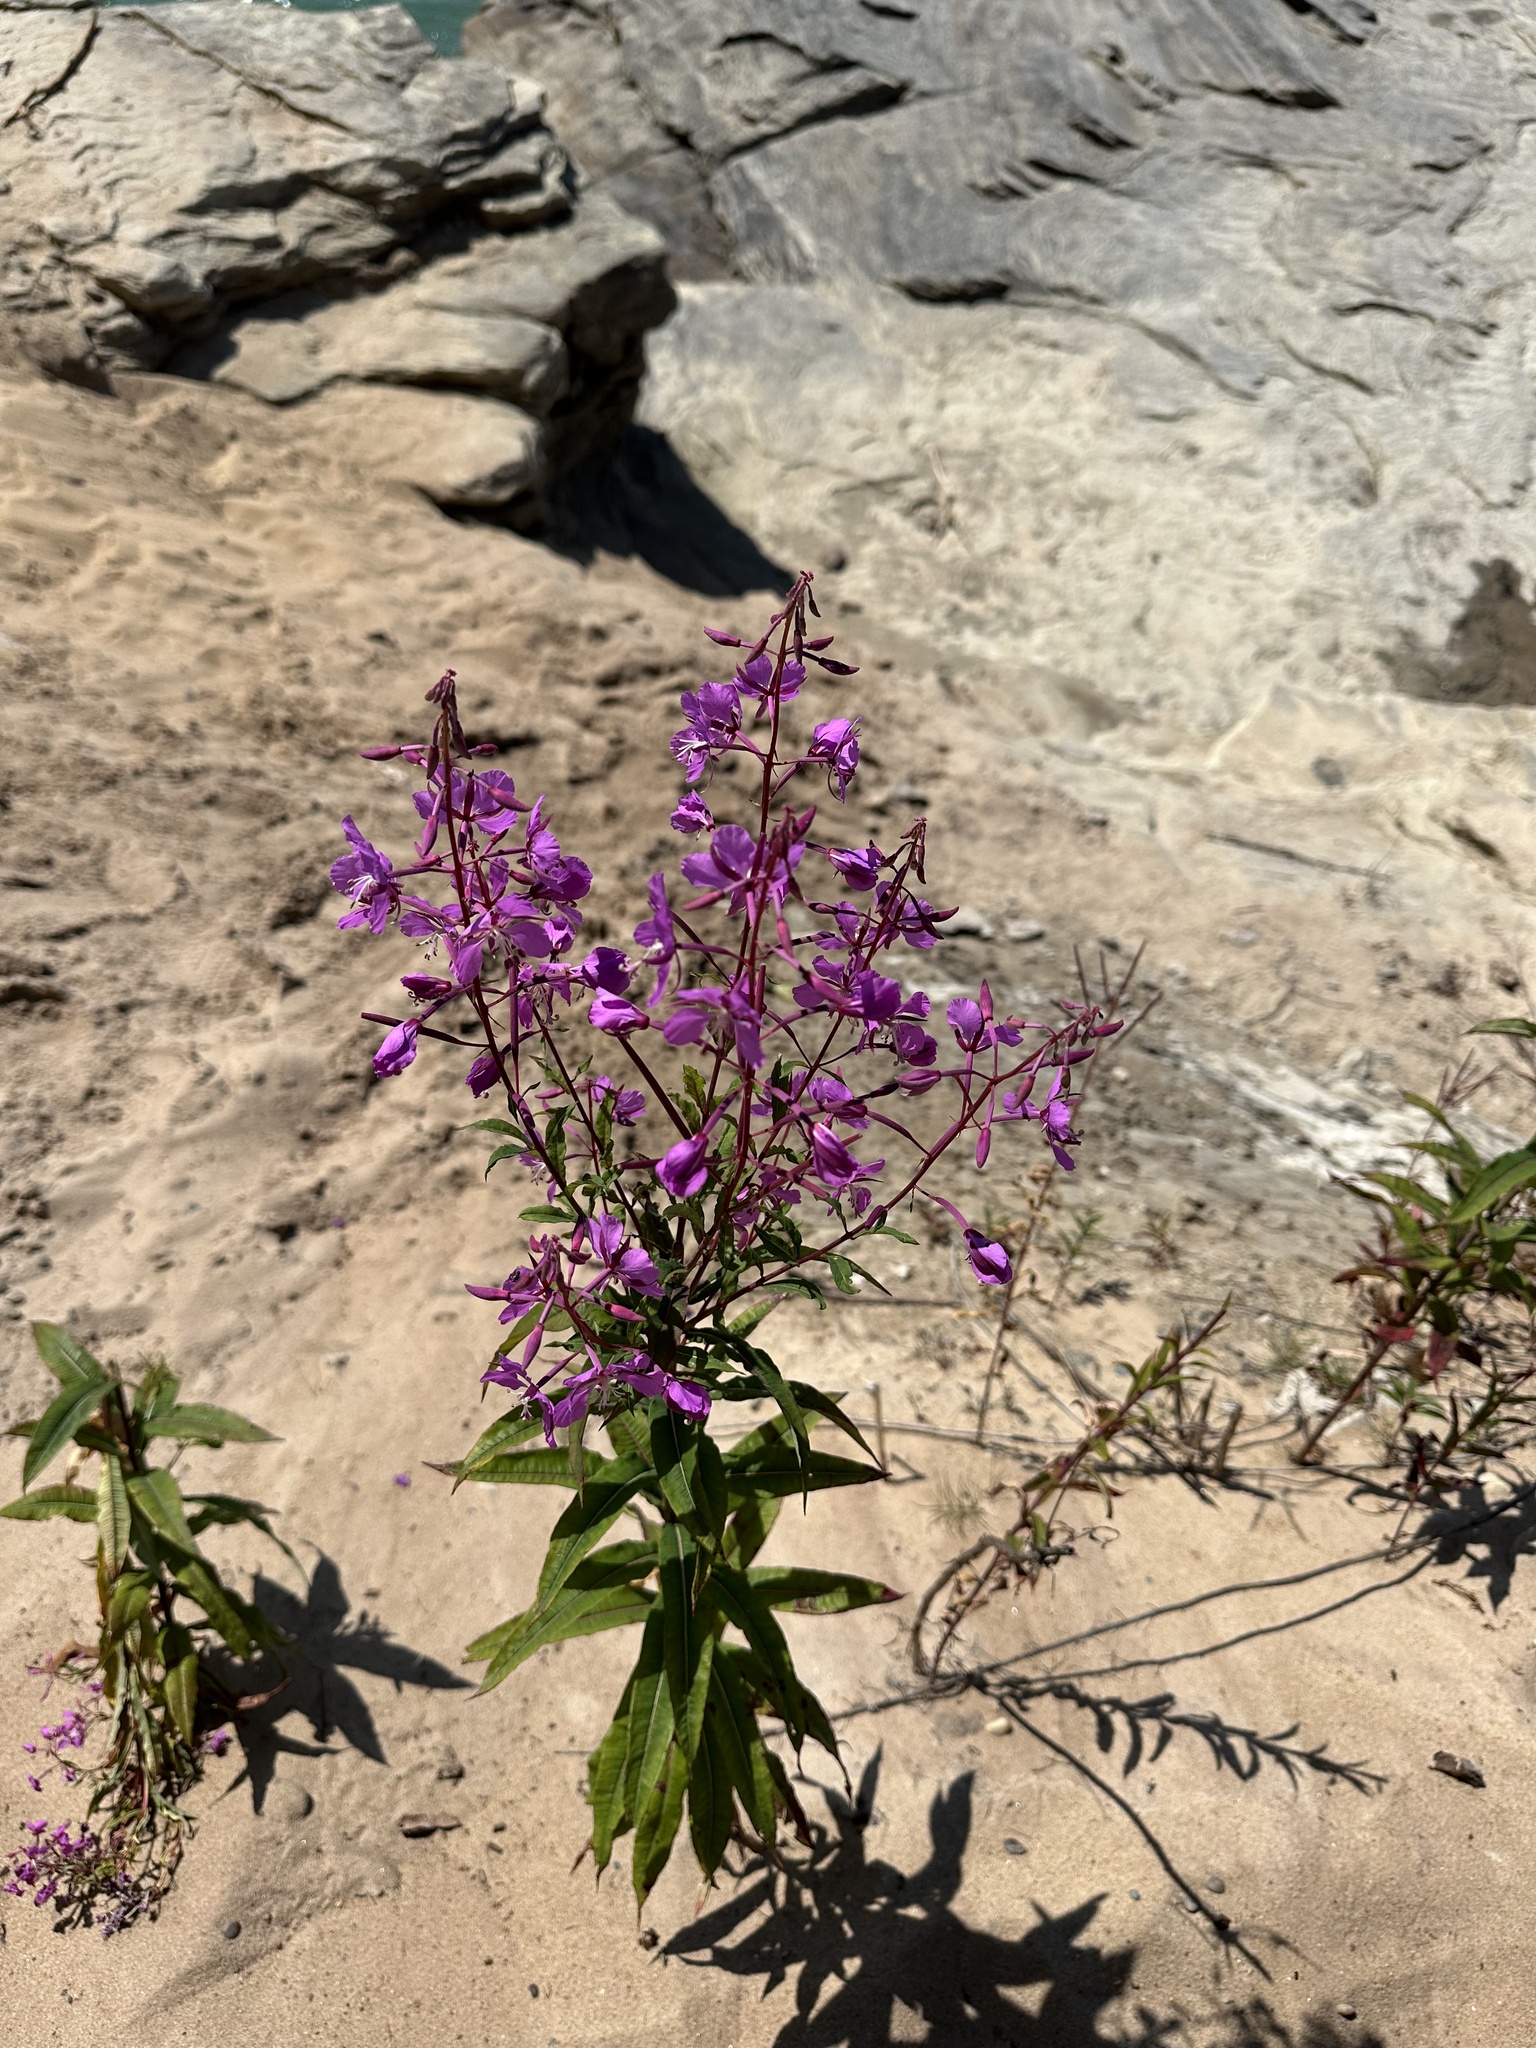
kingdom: Plantae
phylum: Tracheophyta
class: Magnoliopsida
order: Myrtales
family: Onagraceae
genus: Chamaenerion
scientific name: Chamaenerion angustifolium
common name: Fireweed
